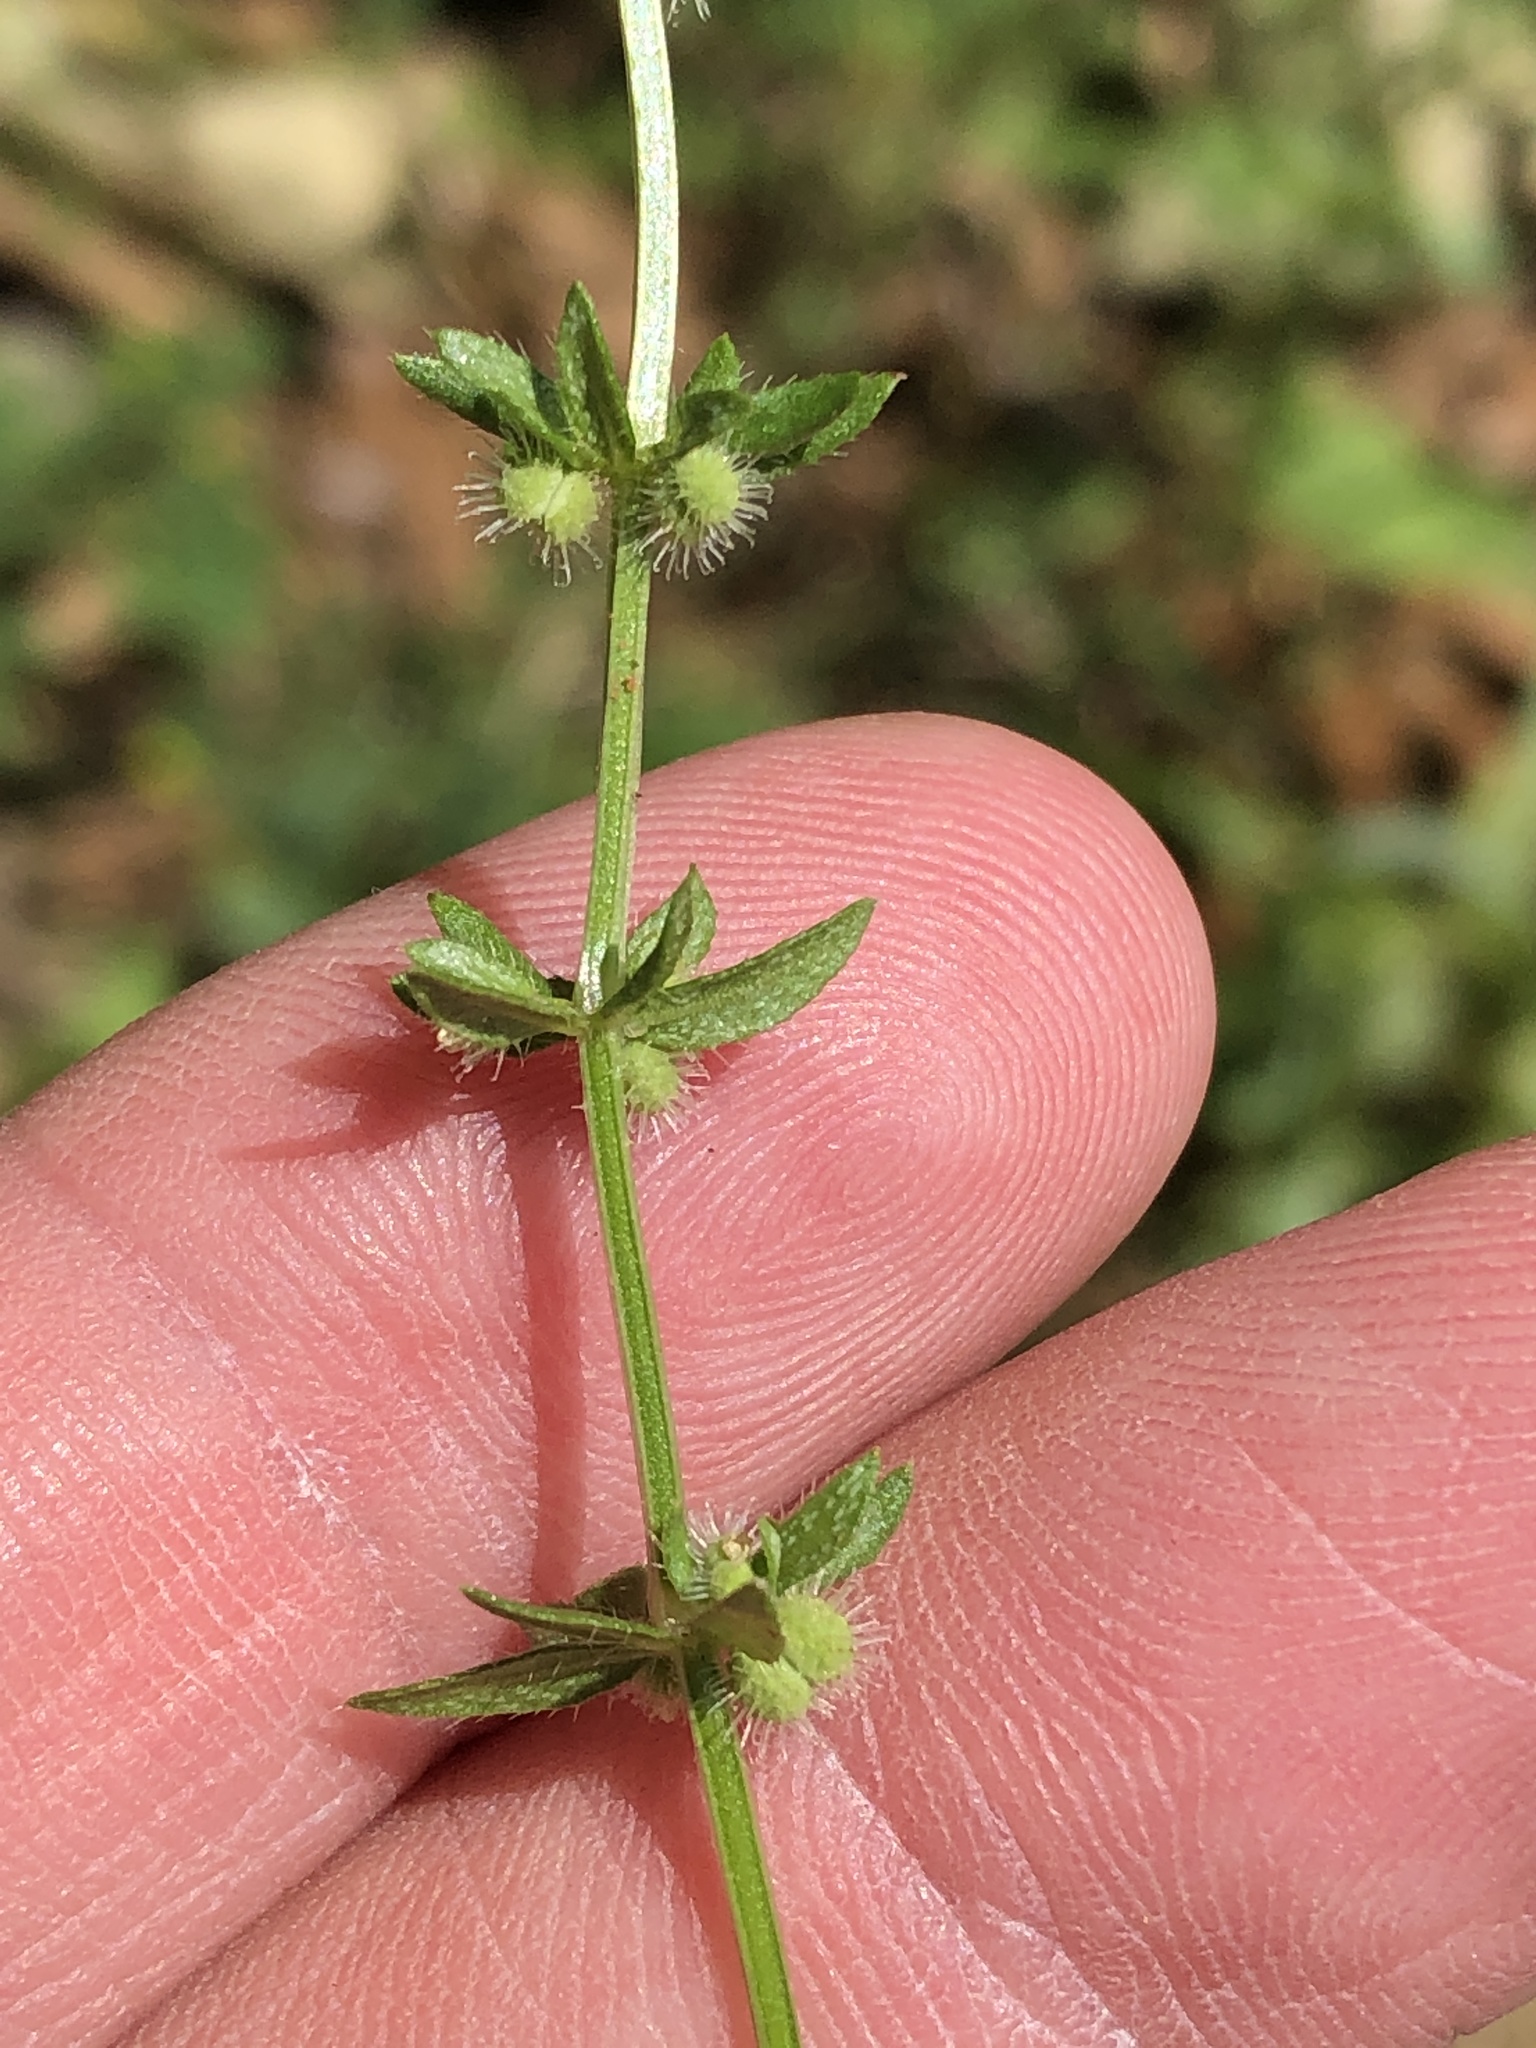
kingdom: Plantae
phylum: Tracheophyta
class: Magnoliopsida
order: Gentianales
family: Rubiaceae
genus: Galium
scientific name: Galium virgatum
